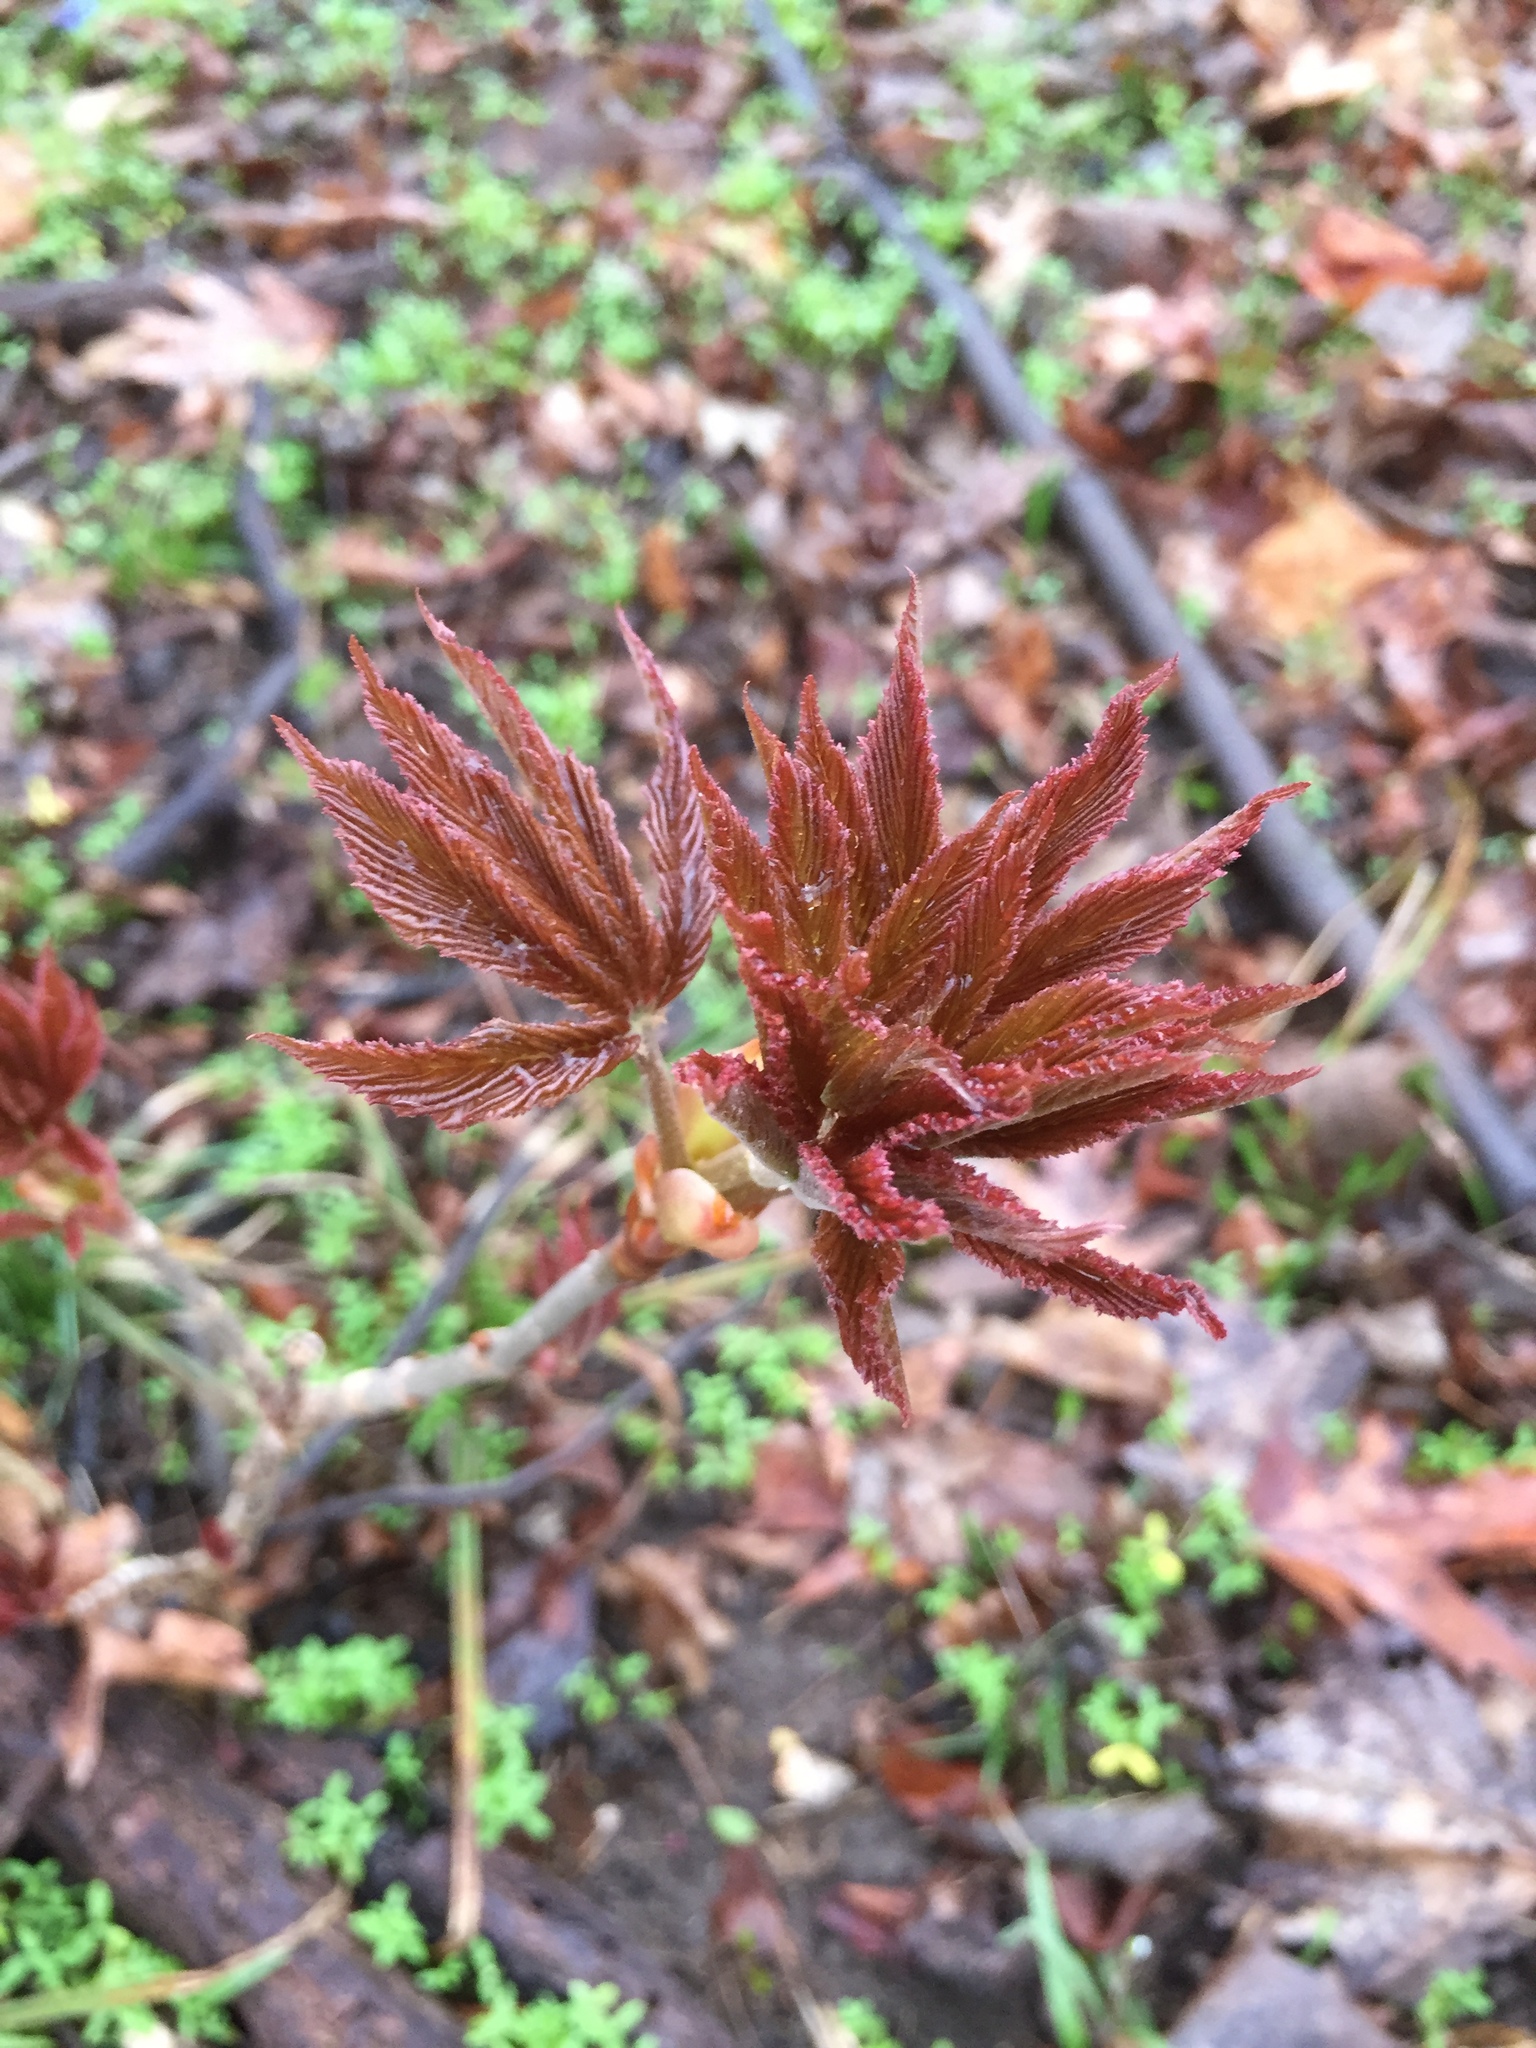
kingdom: Plantae
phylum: Tracheophyta
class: Magnoliopsida
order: Sapindales
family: Sapindaceae
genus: Aesculus
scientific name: Aesculus glabra
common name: Ohio buckeye
